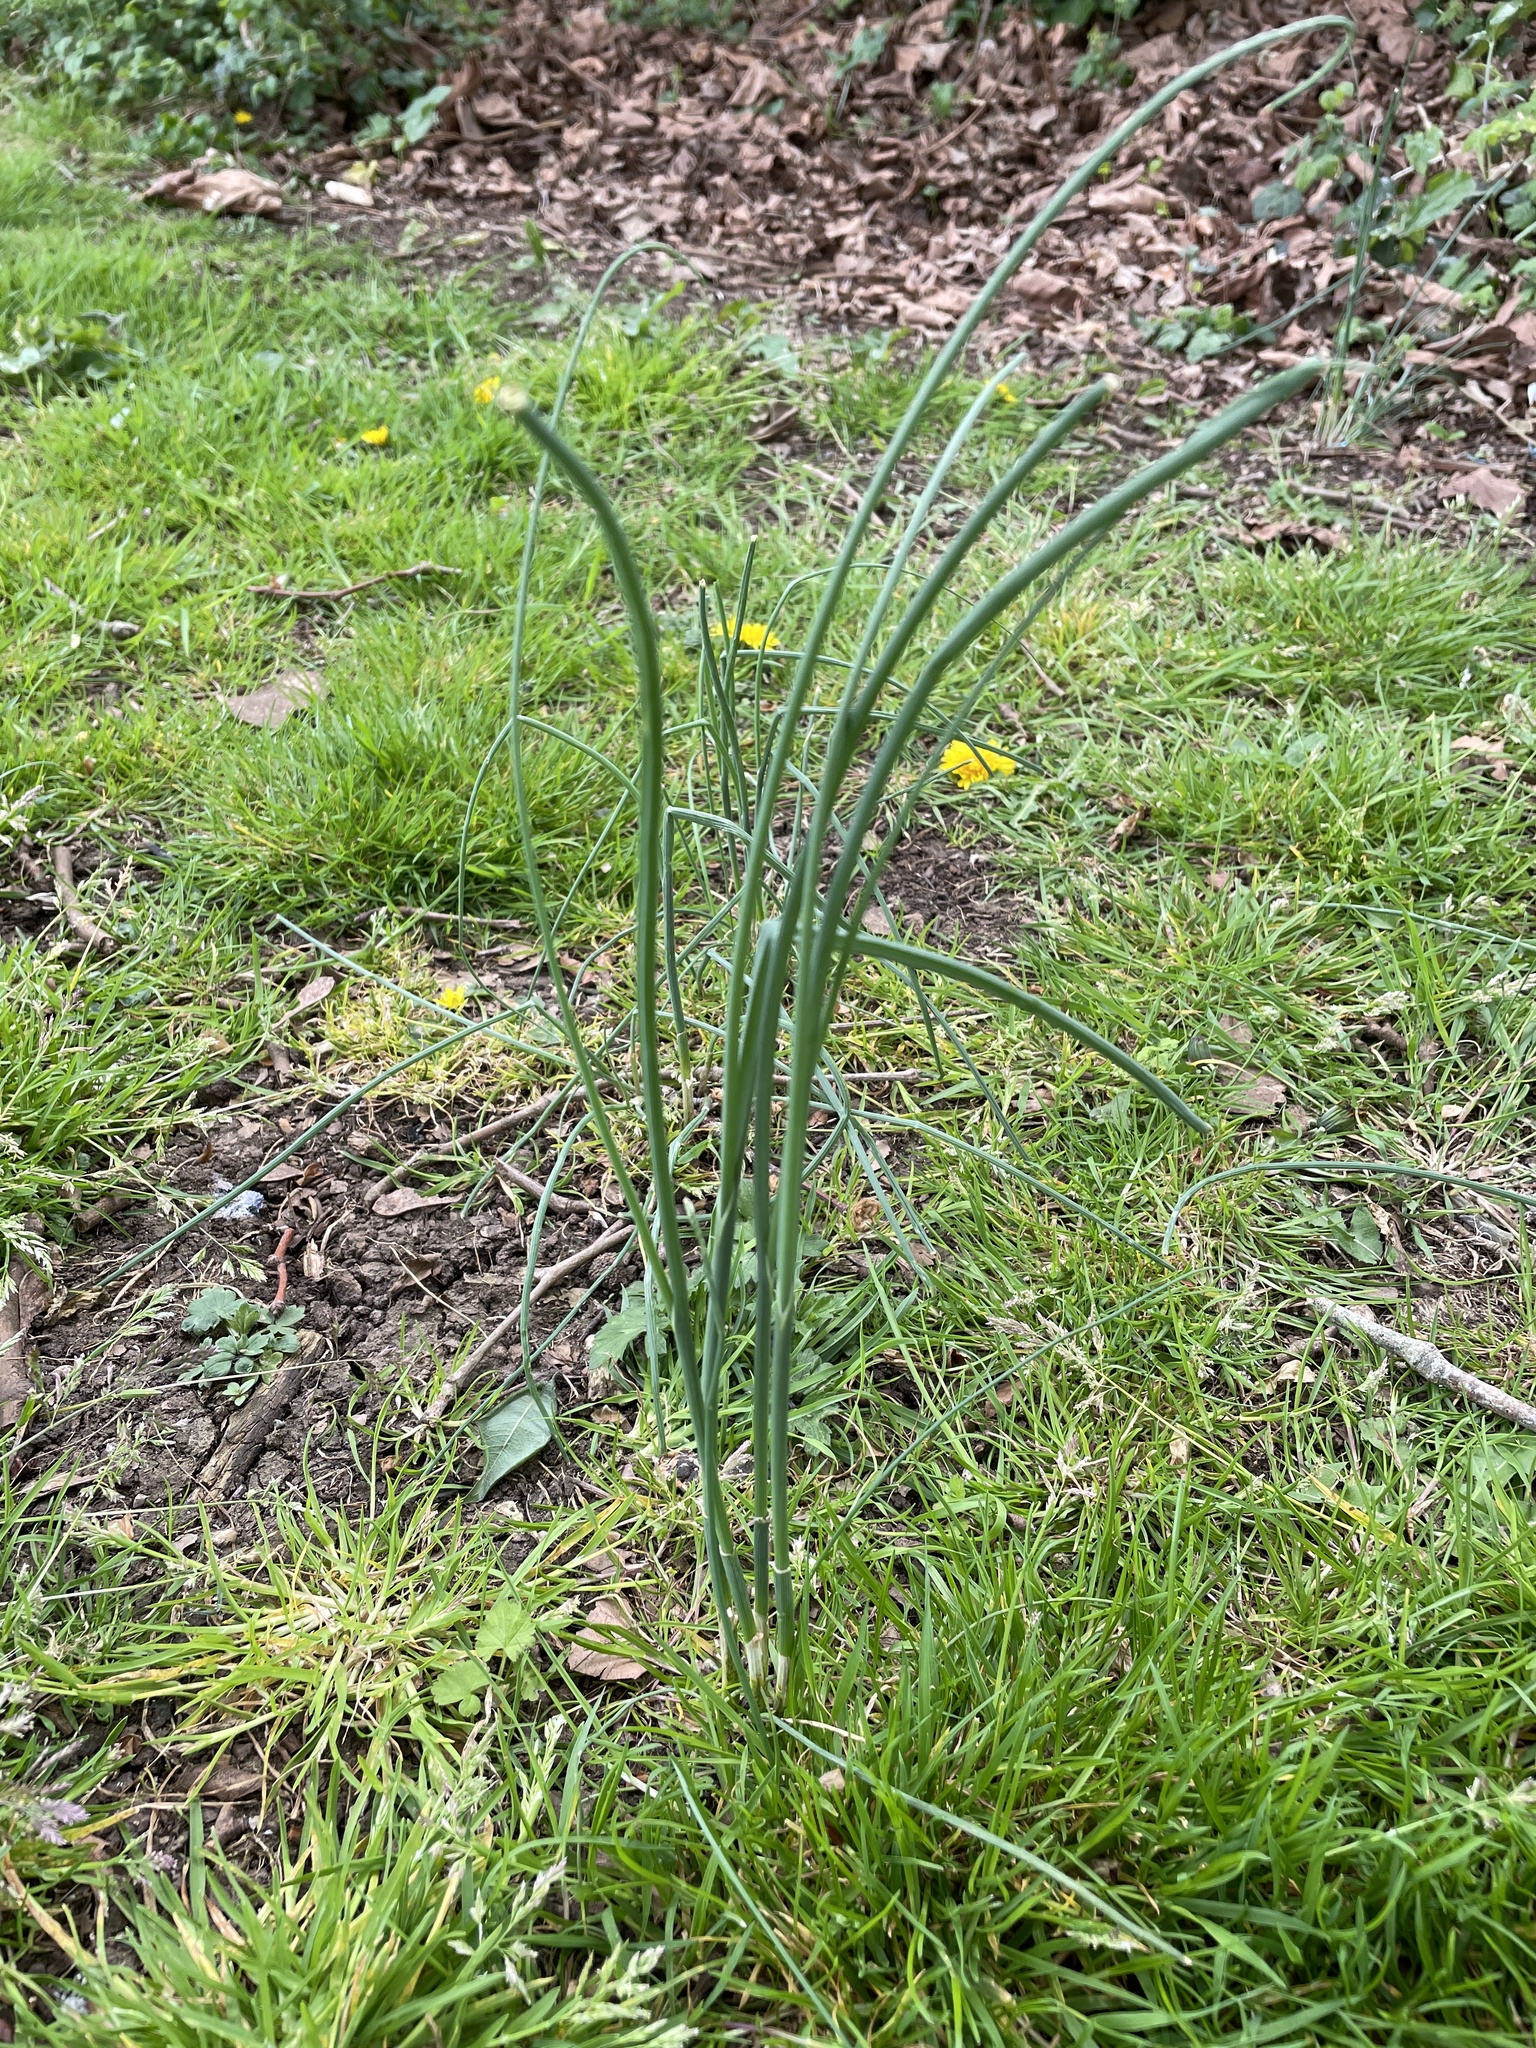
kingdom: Plantae
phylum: Tracheophyta
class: Liliopsida
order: Asparagales
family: Amaryllidaceae
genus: Allium
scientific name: Allium vineale
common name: Crow garlic
